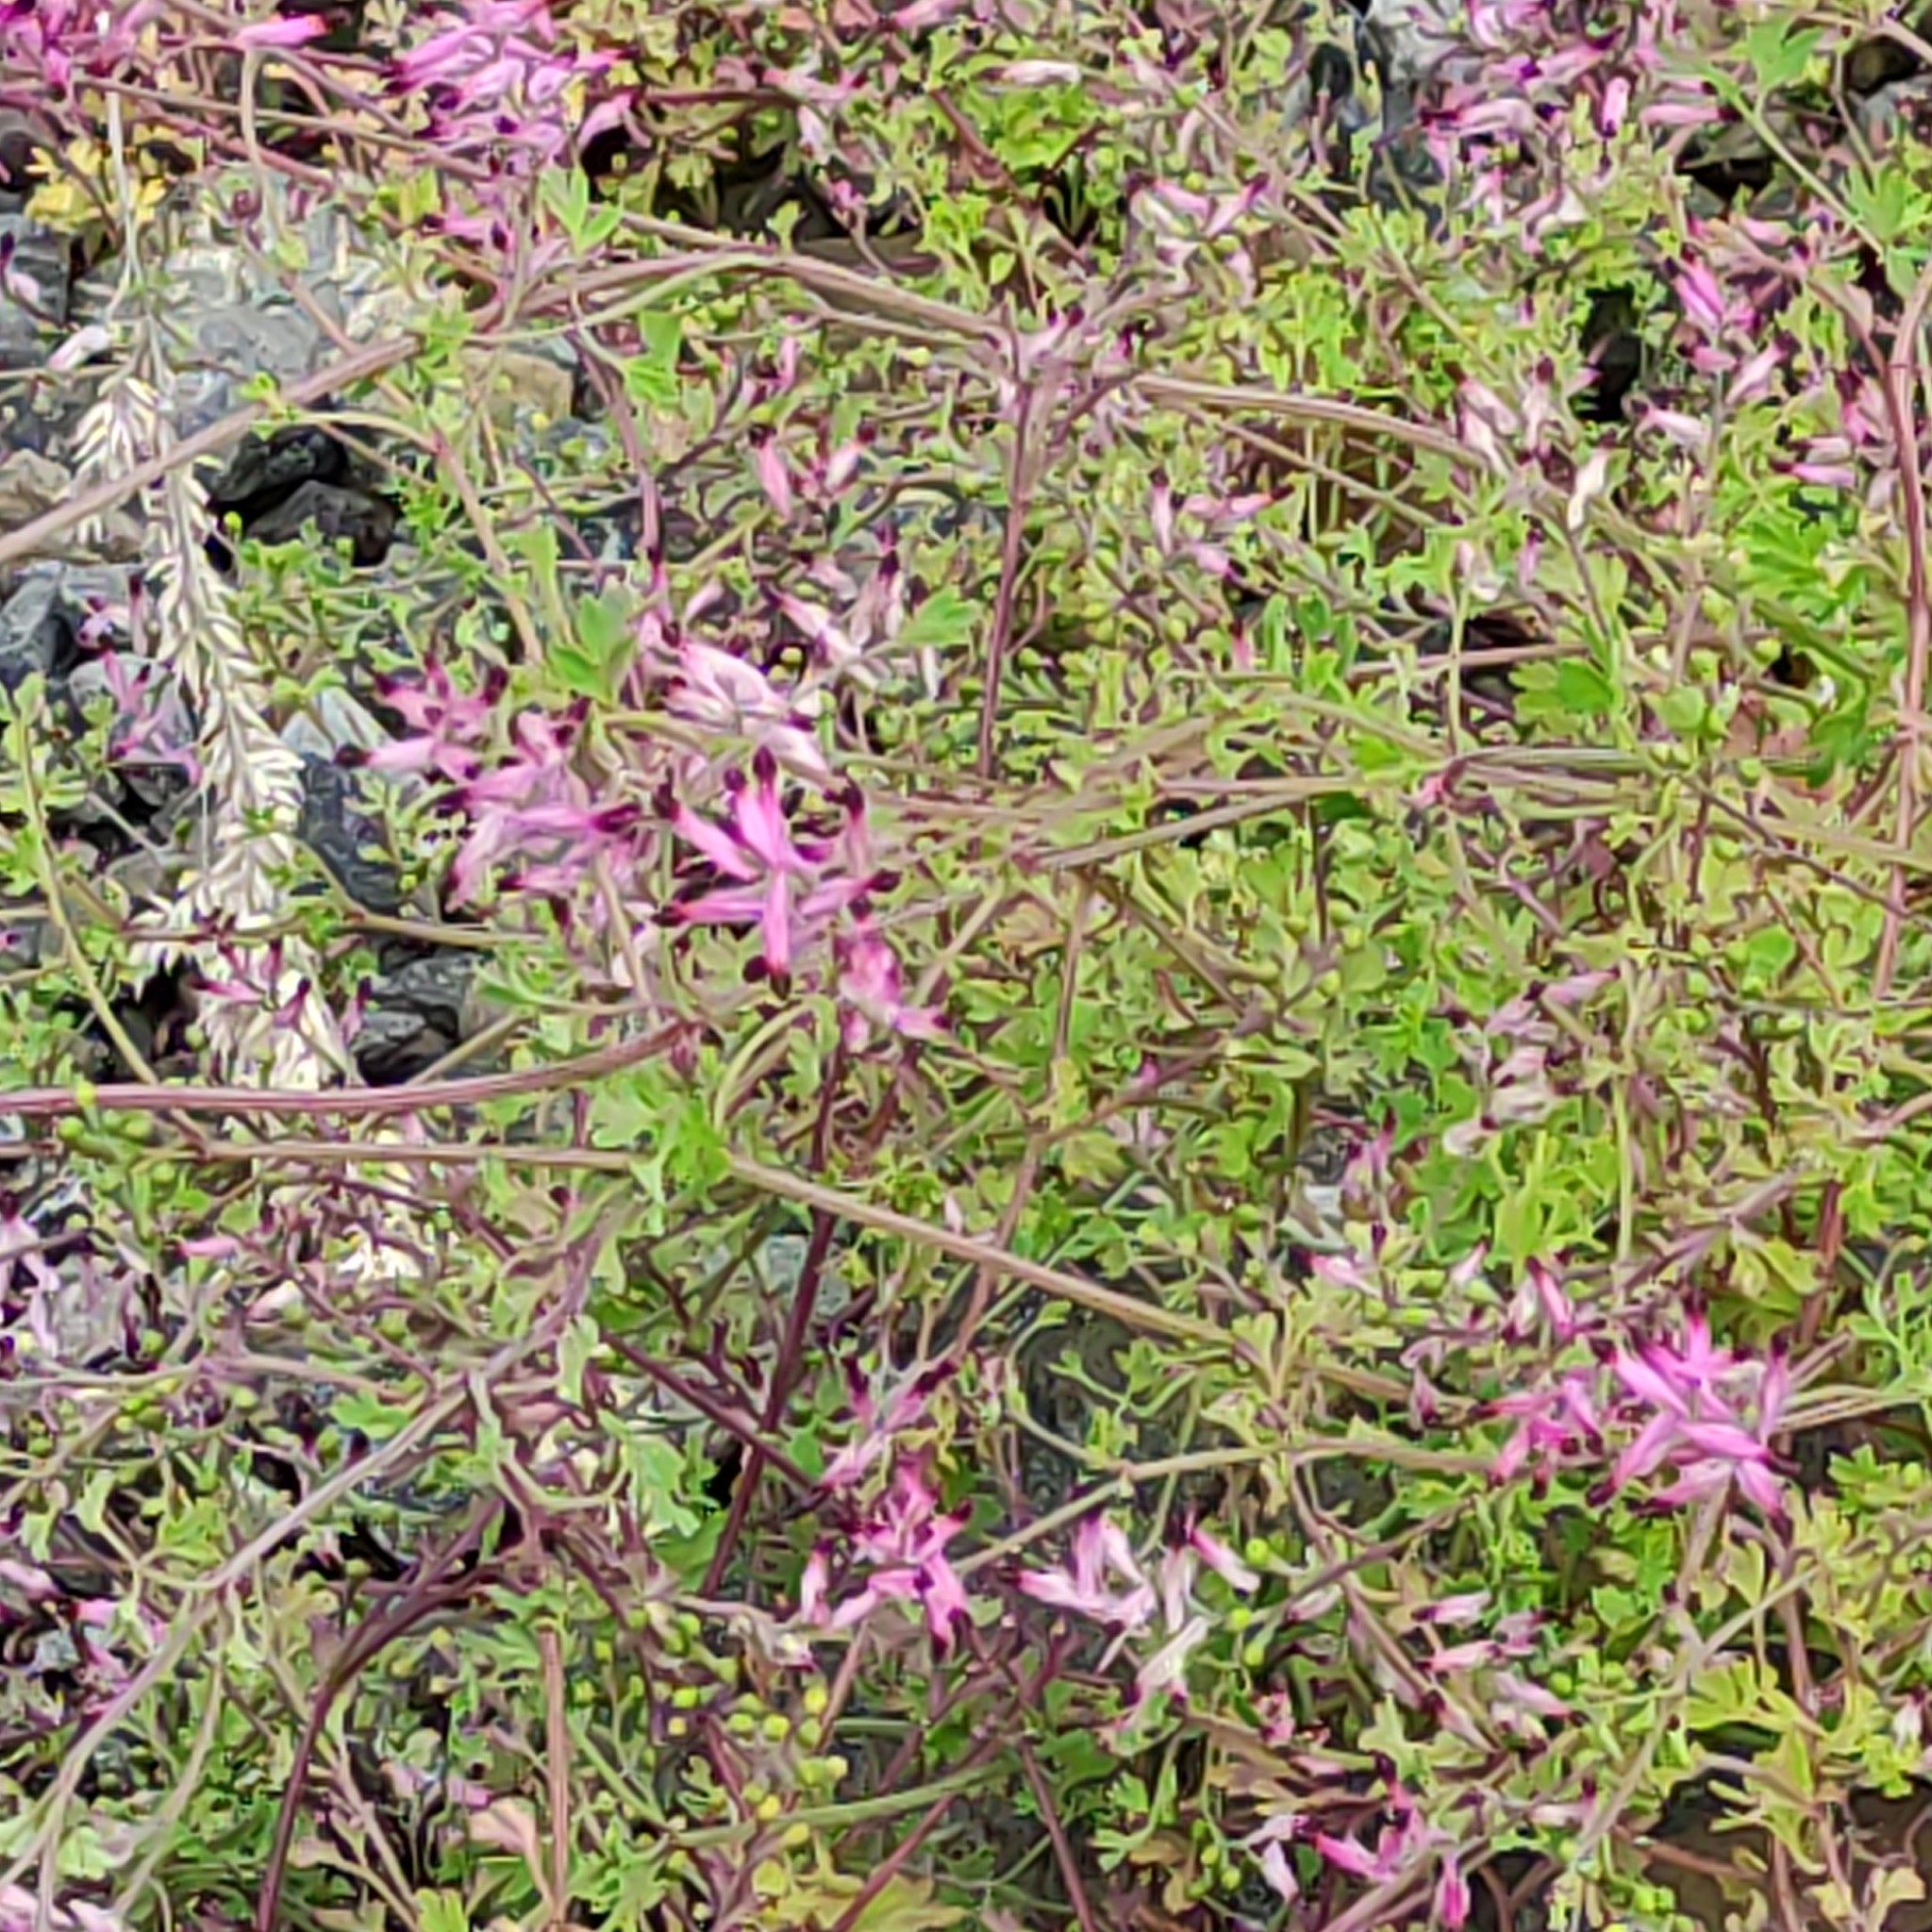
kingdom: Plantae
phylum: Tracheophyta
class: Magnoliopsida
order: Ranunculales
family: Papaveraceae
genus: Fumaria
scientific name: Fumaria muralis
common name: Common ramping-fumitory
